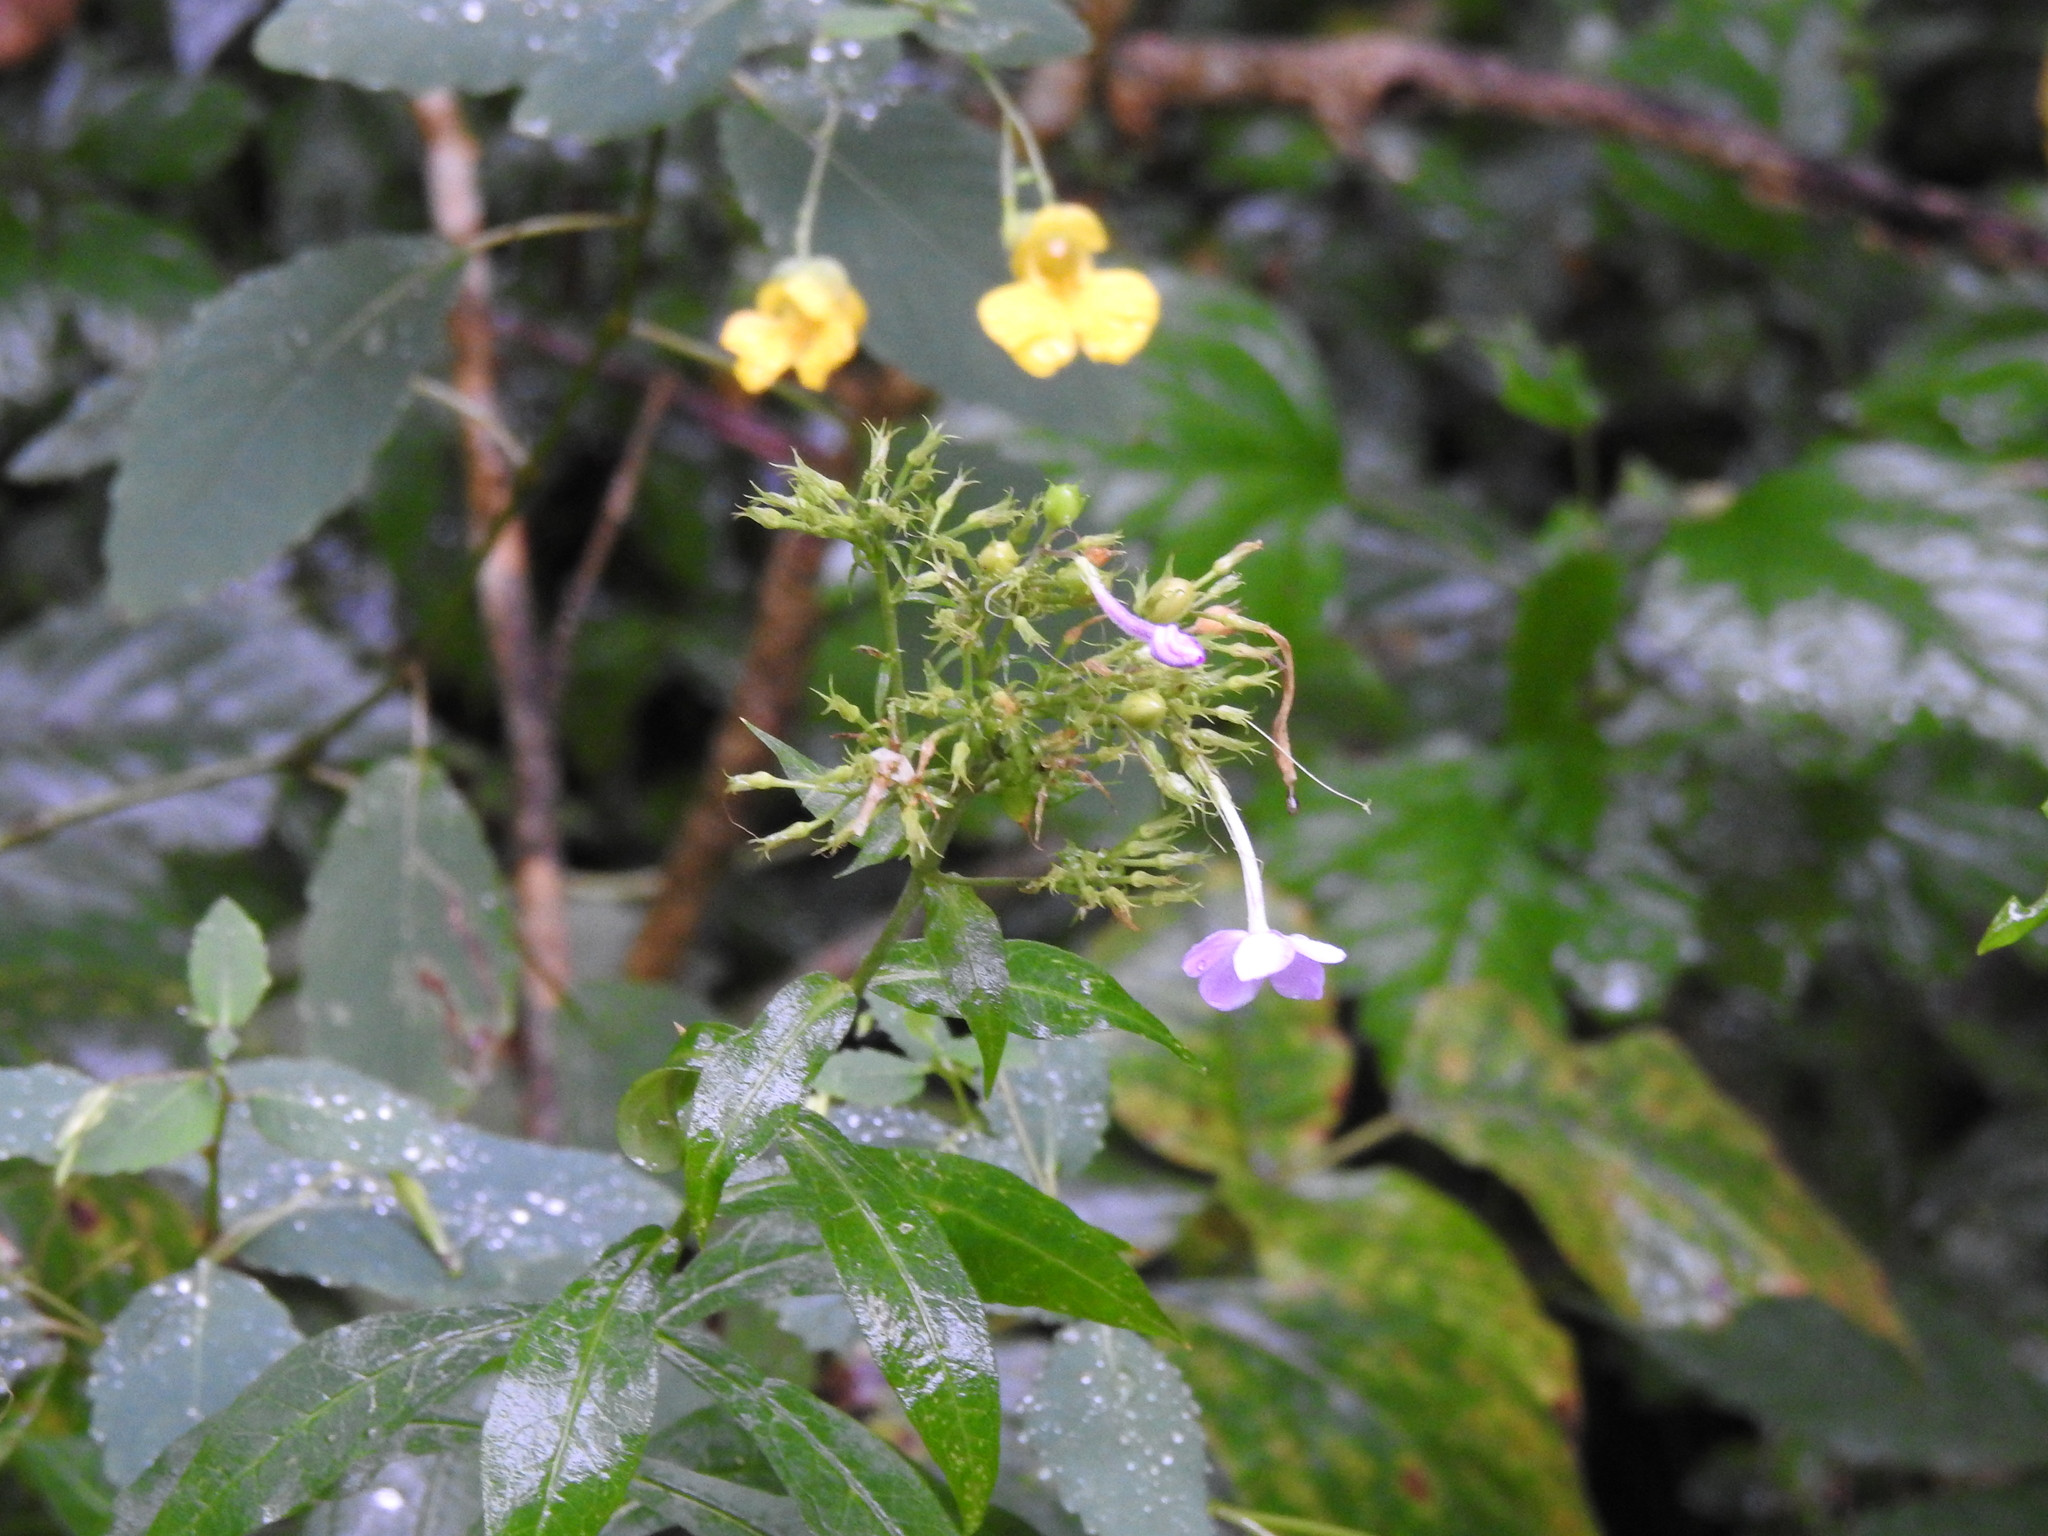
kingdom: Plantae
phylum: Tracheophyta
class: Magnoliopsida
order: Ericales
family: Polemoniaceae
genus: Phlox
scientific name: Phlox paniculata
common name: Fall phlox
